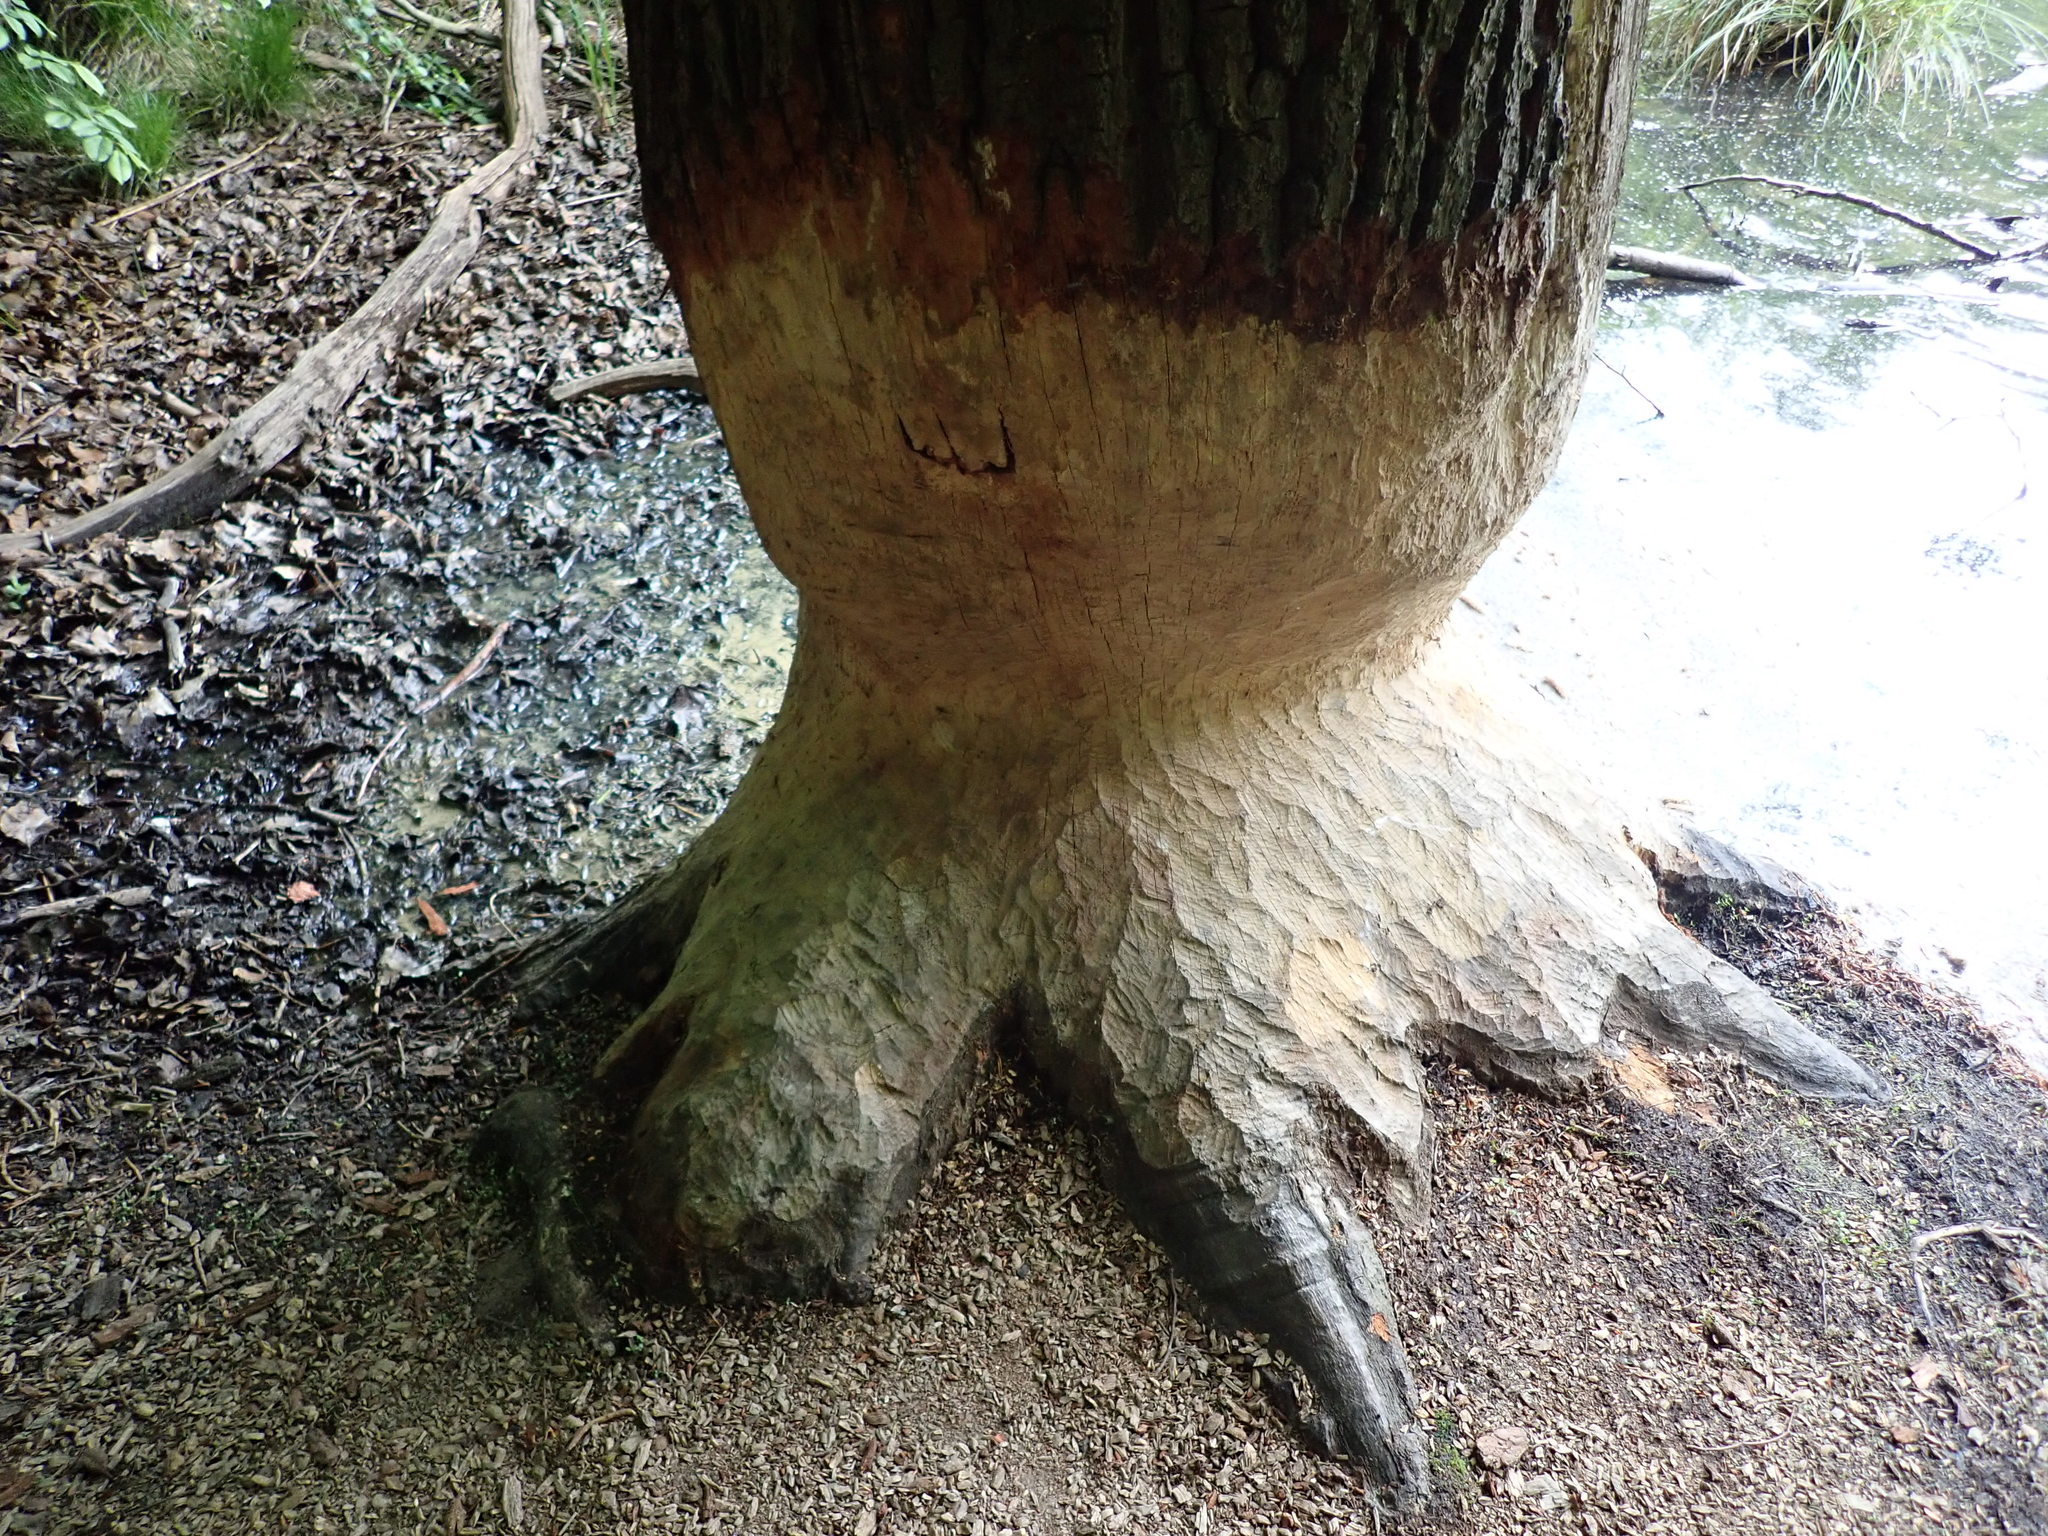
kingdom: Animalia
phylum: Chordata
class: Mammalia
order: Rodentia
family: Castoridae
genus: Castor
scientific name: Castor fiber
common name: Eurasian beaver
